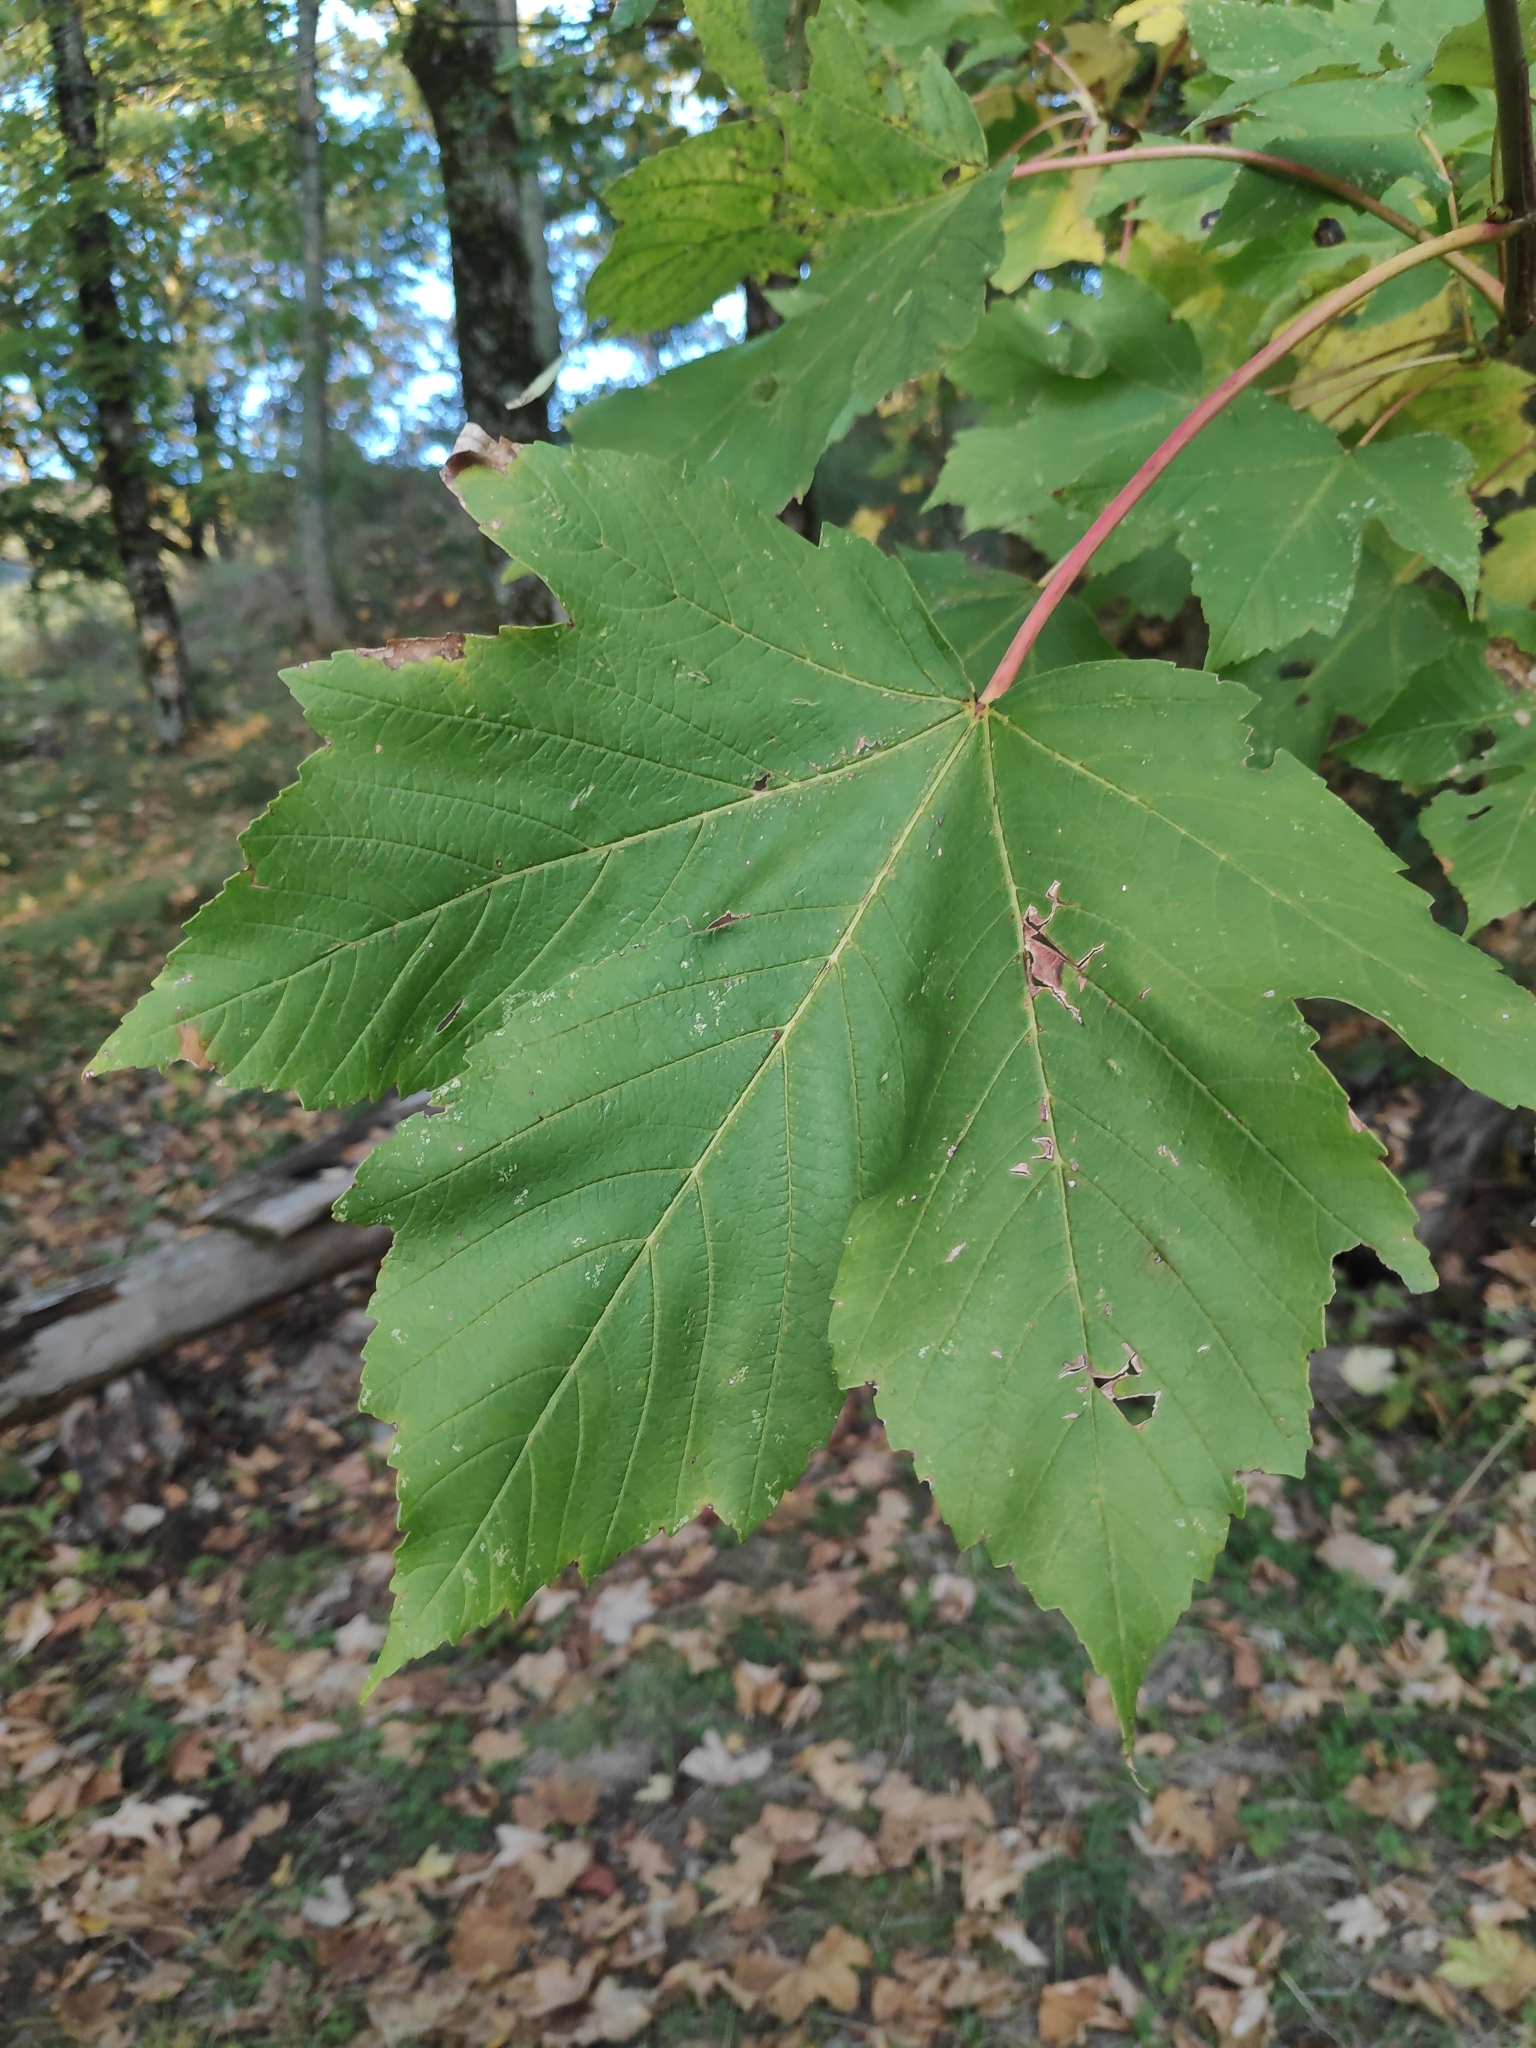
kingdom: Plantae
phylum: Tracheophyta
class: Magnoliopsida
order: Sapindales
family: Sapindaceae
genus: Acer
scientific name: Acer pseudoplatanus
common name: Sycamore
